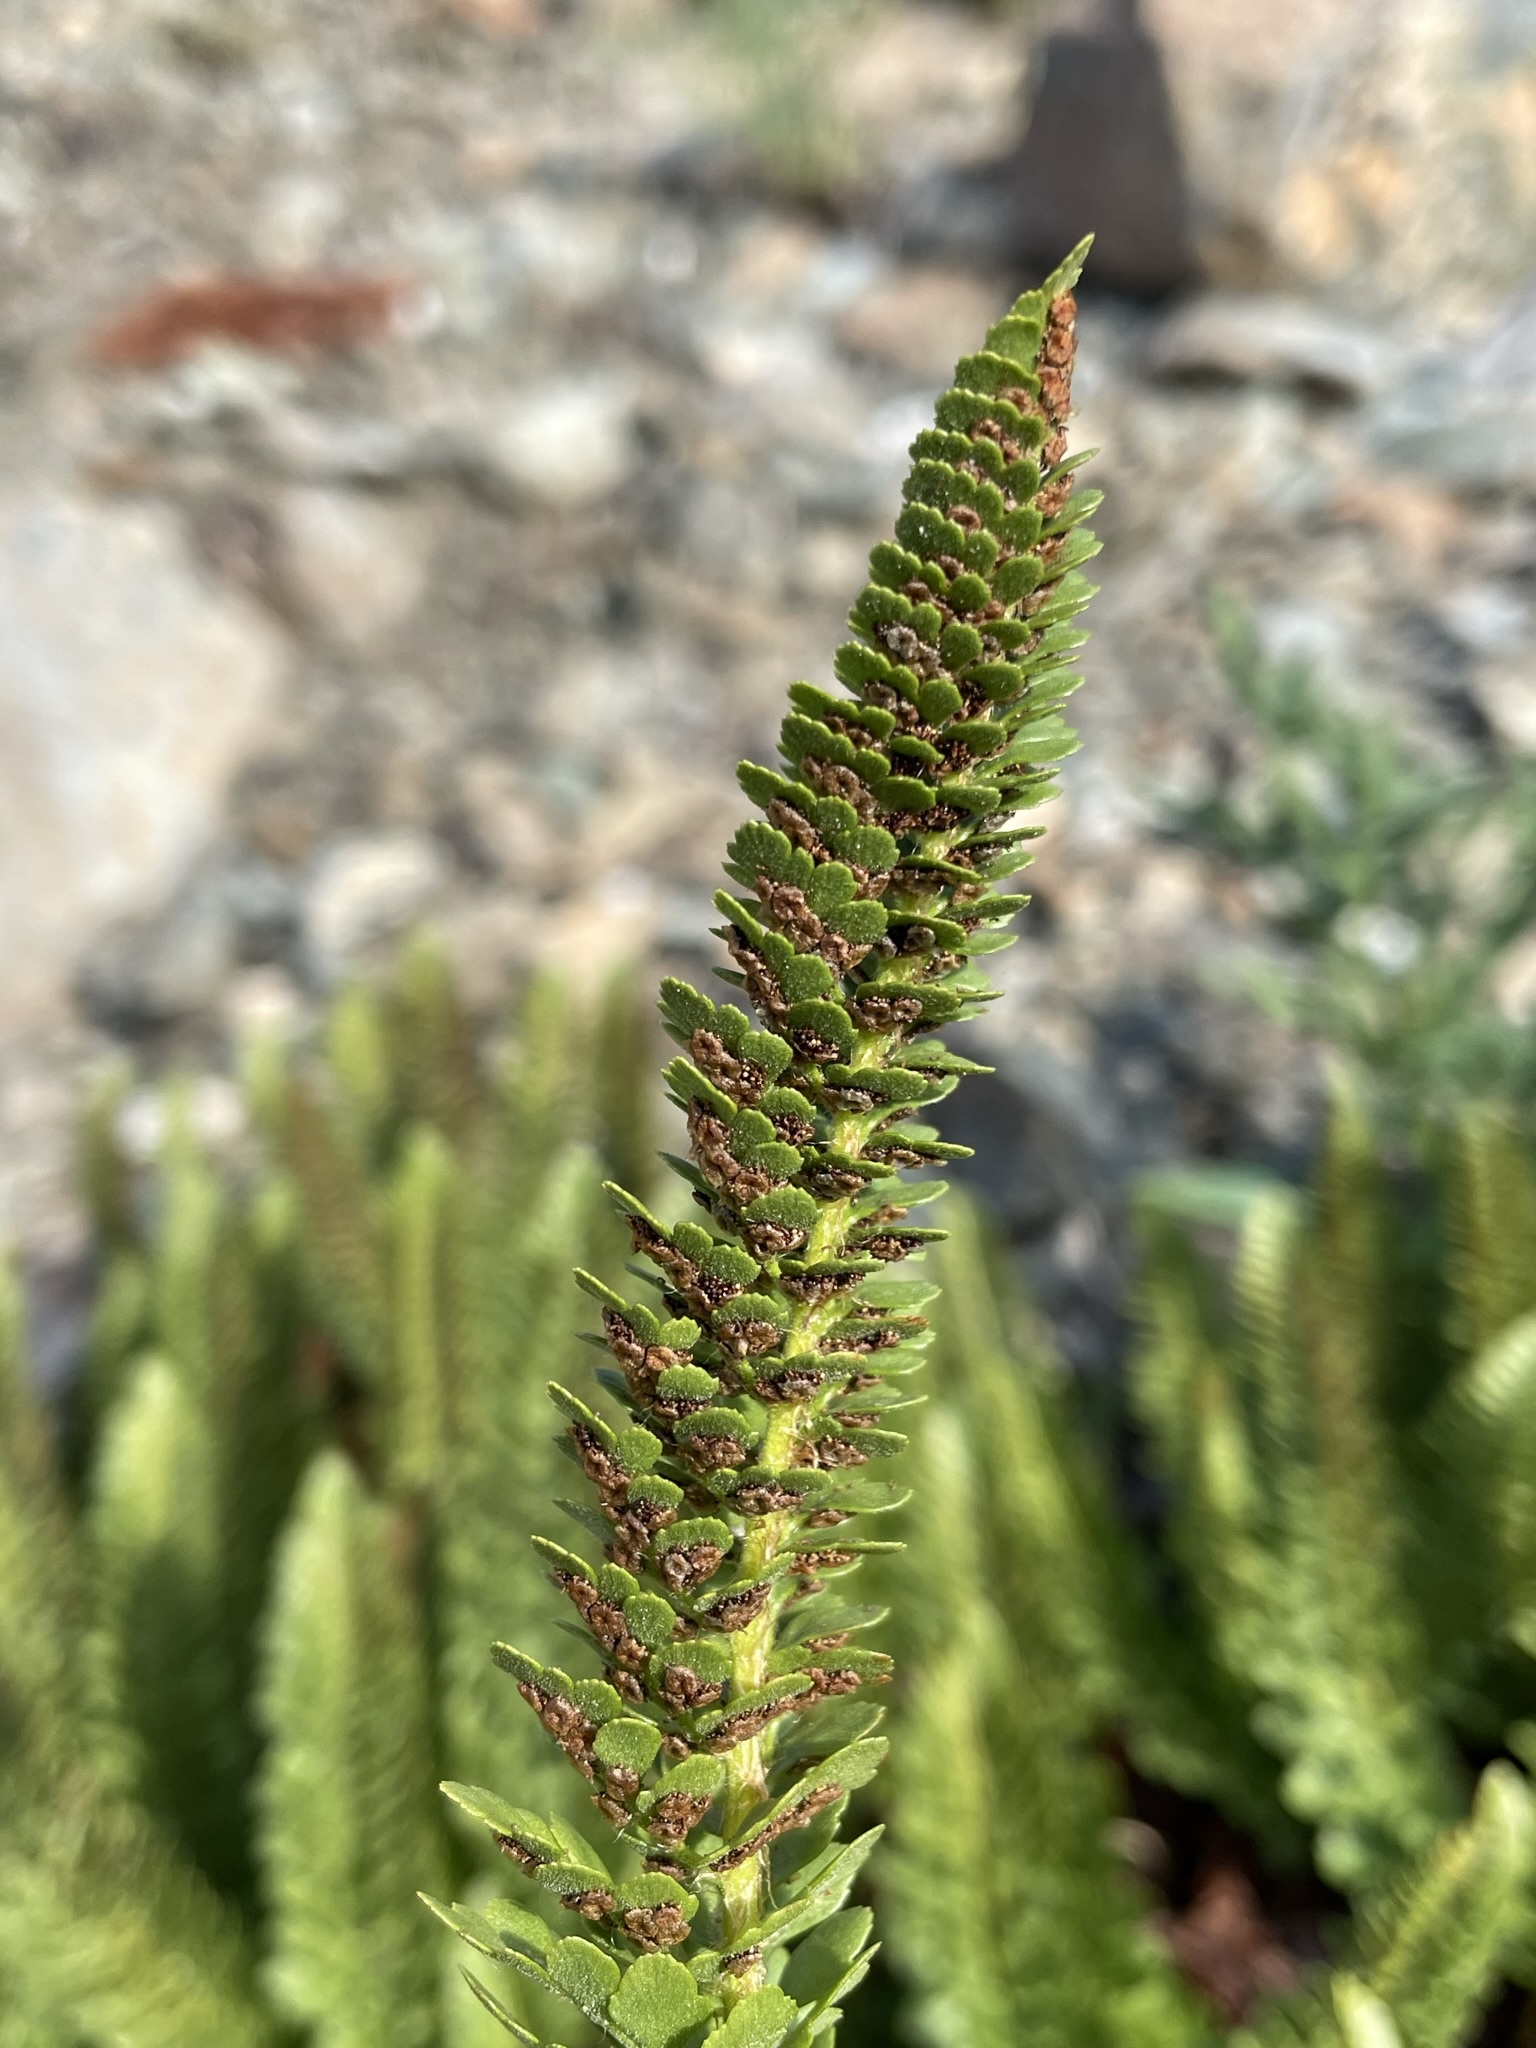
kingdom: Plantae
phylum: Tracheophyta
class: Polypodiopsida
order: Polypodiales
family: Dryopteridaceae
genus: Polystichum
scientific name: Polystichum lemmonii
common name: Lemmon's holly fern
